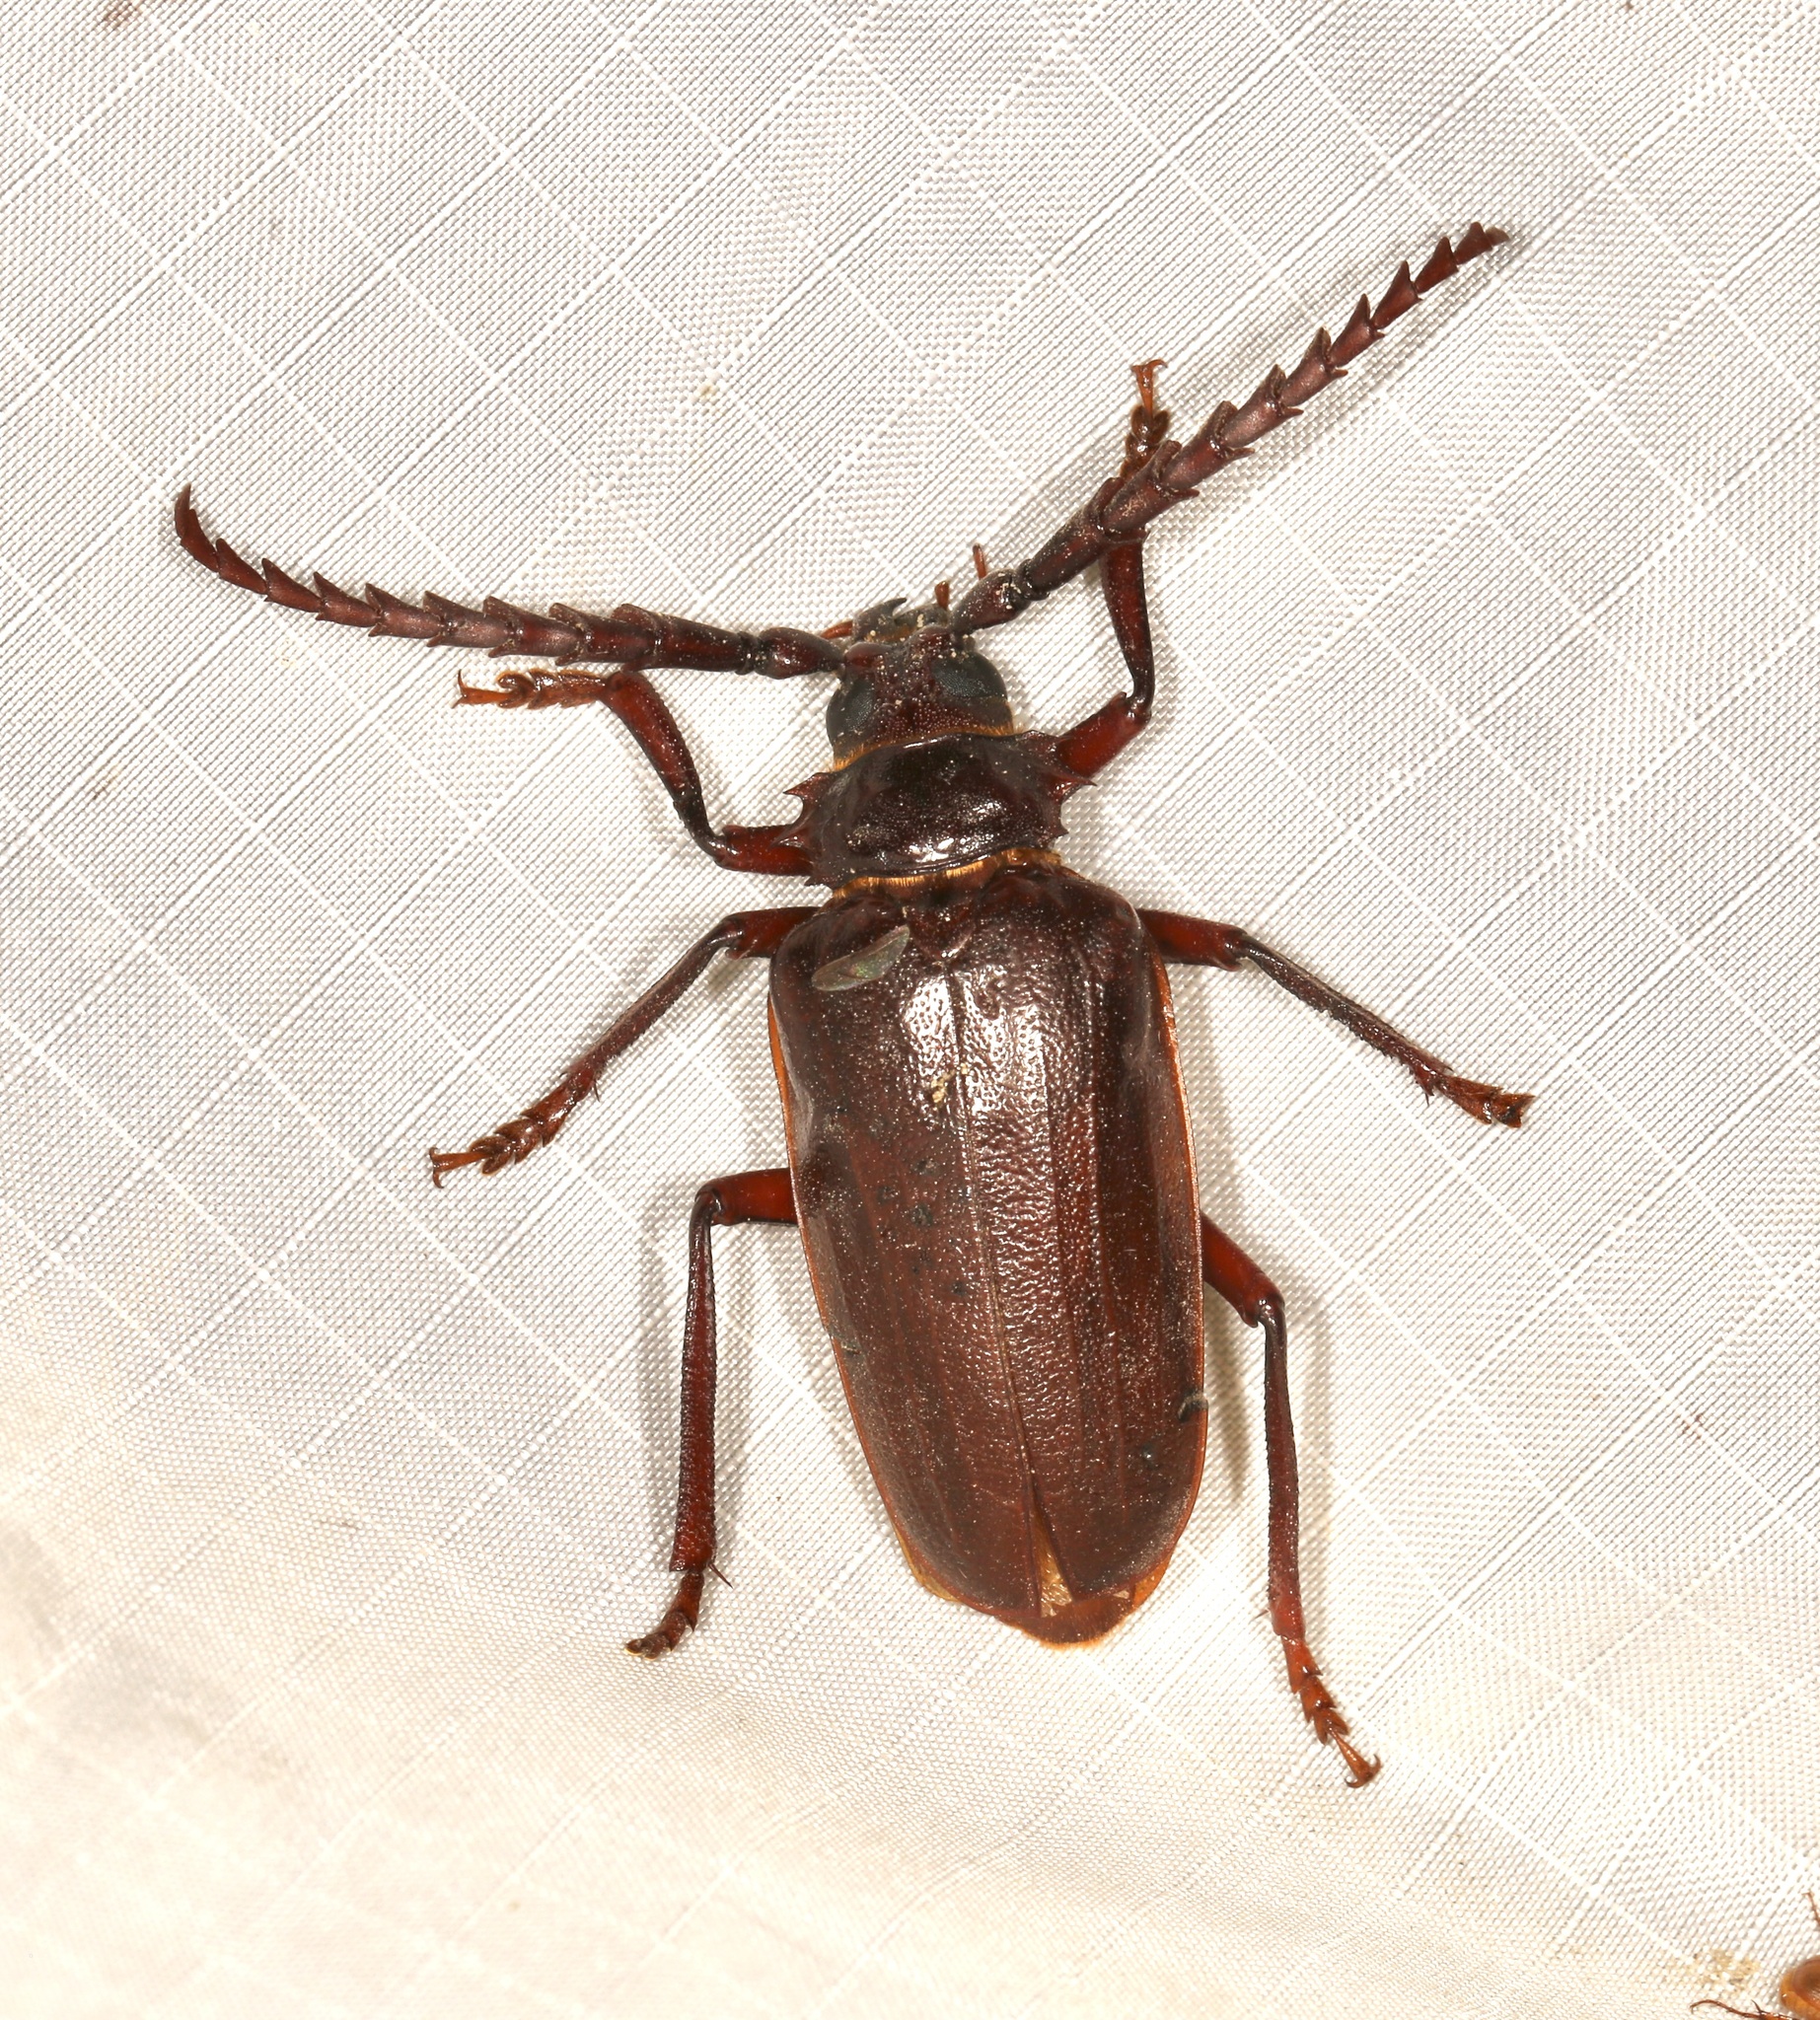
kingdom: Animalia
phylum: Arthropoda
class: Insecta
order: Coleoptera
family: Cerambycidae
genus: Prionus
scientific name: Prionus californicus
